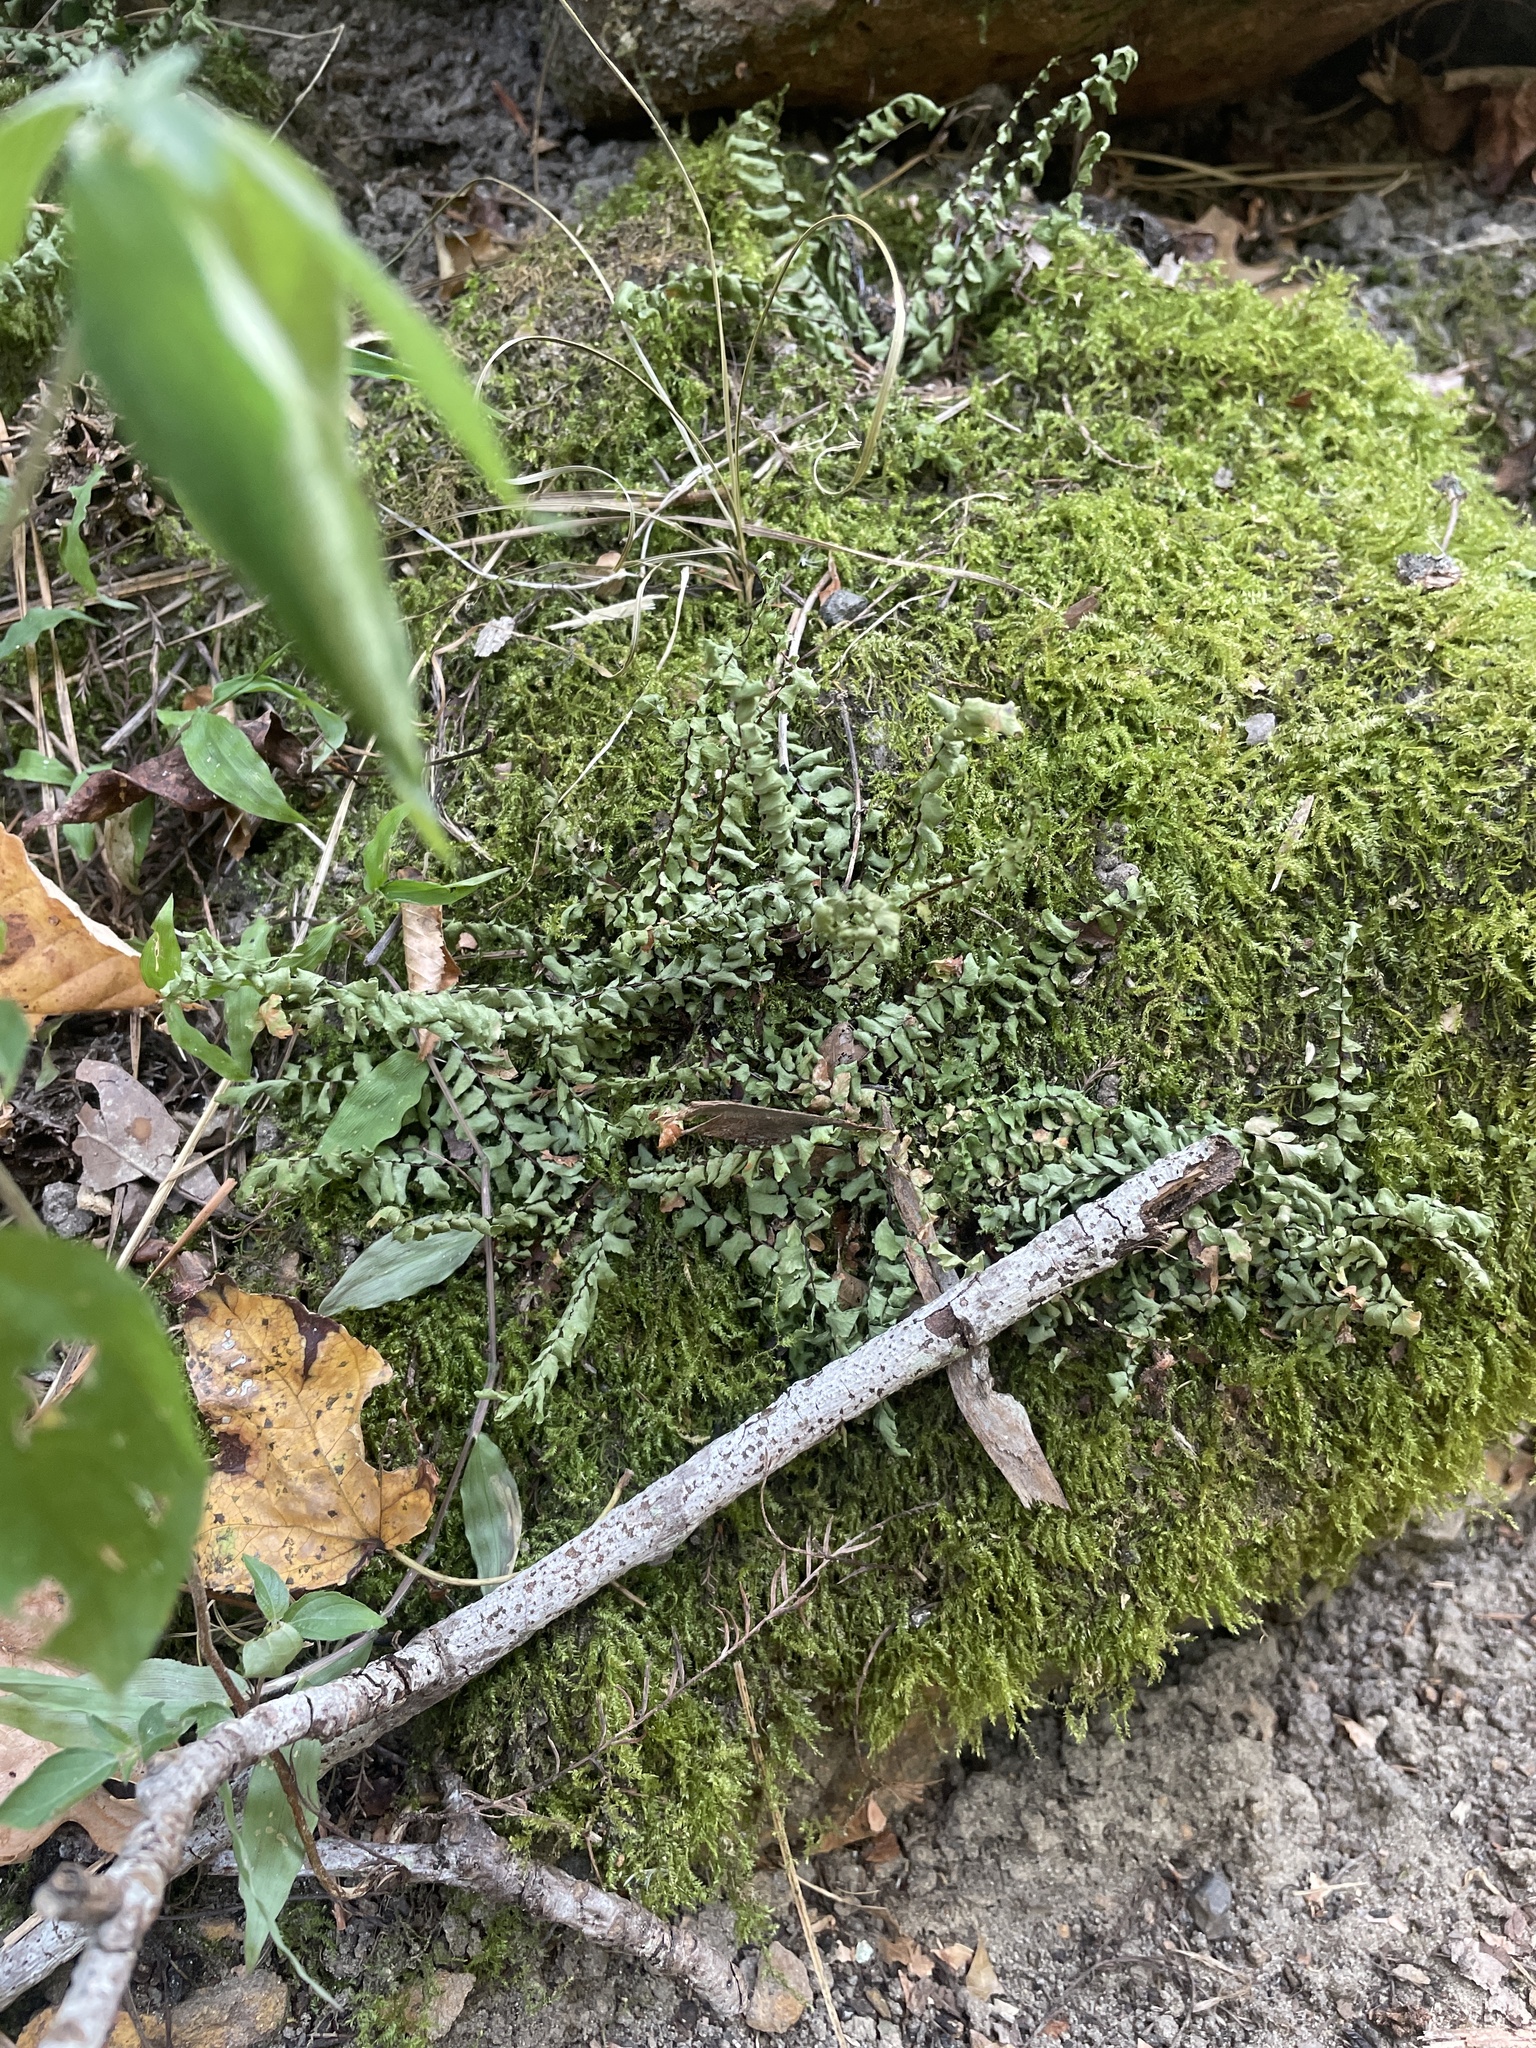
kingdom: Plantae
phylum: Tracheophyta
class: Polypodiopsida
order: Polypodiales
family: Aspleniaceae
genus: Asplenium
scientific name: Asplenium platyneuron
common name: Ebony spleenwort
